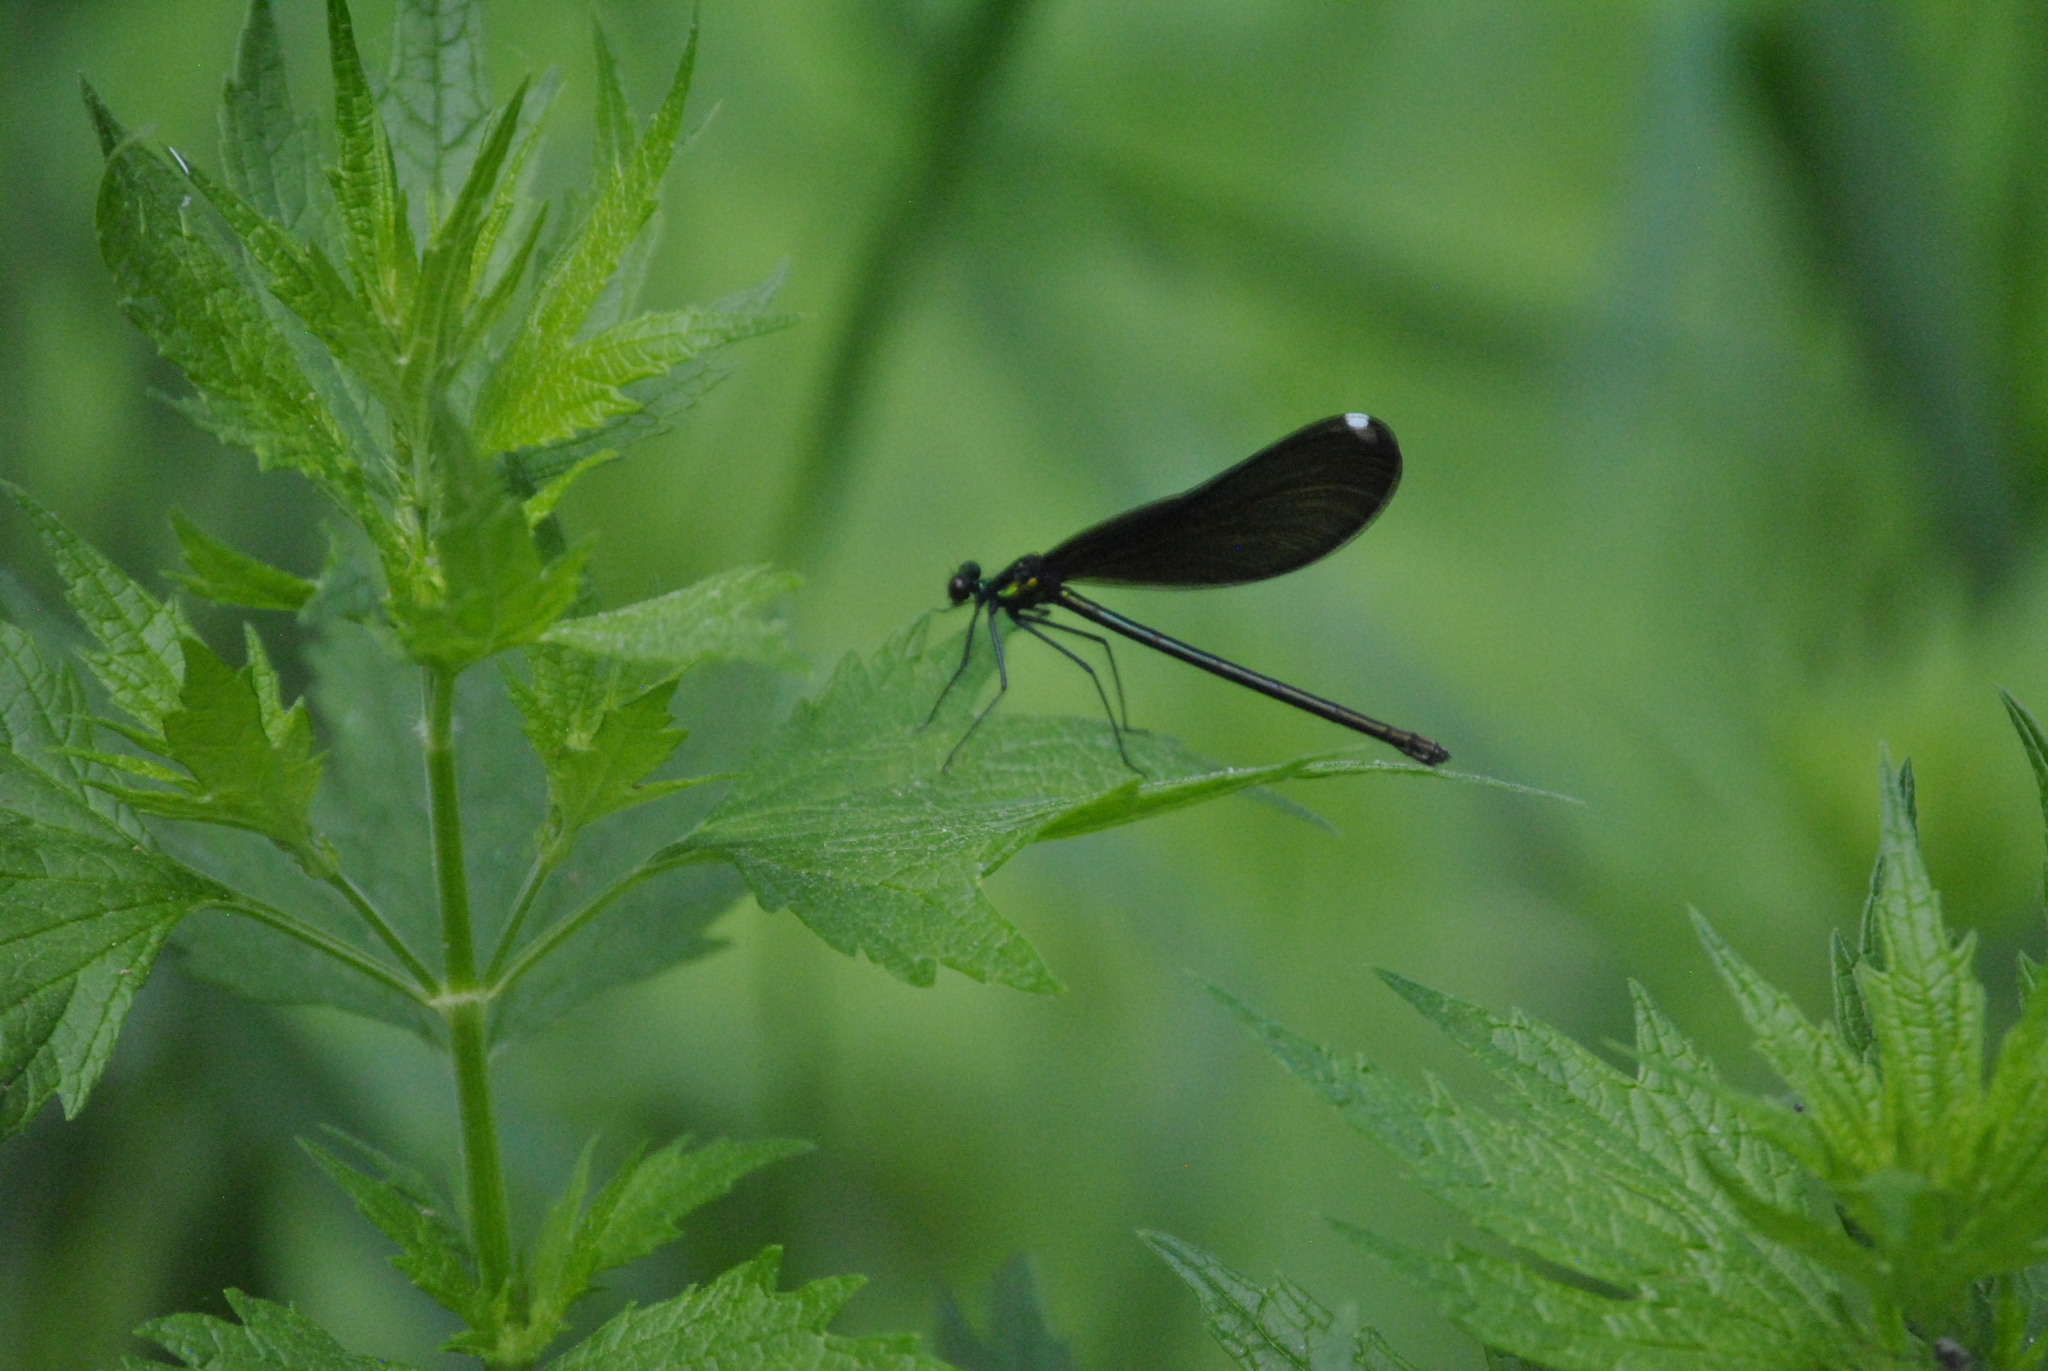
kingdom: Animalia
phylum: Arthropoda
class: Insecta
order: Odonata
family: Calopterygidae
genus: Calopteryx
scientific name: Calopteryx maculata
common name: Ebony jewelwing
